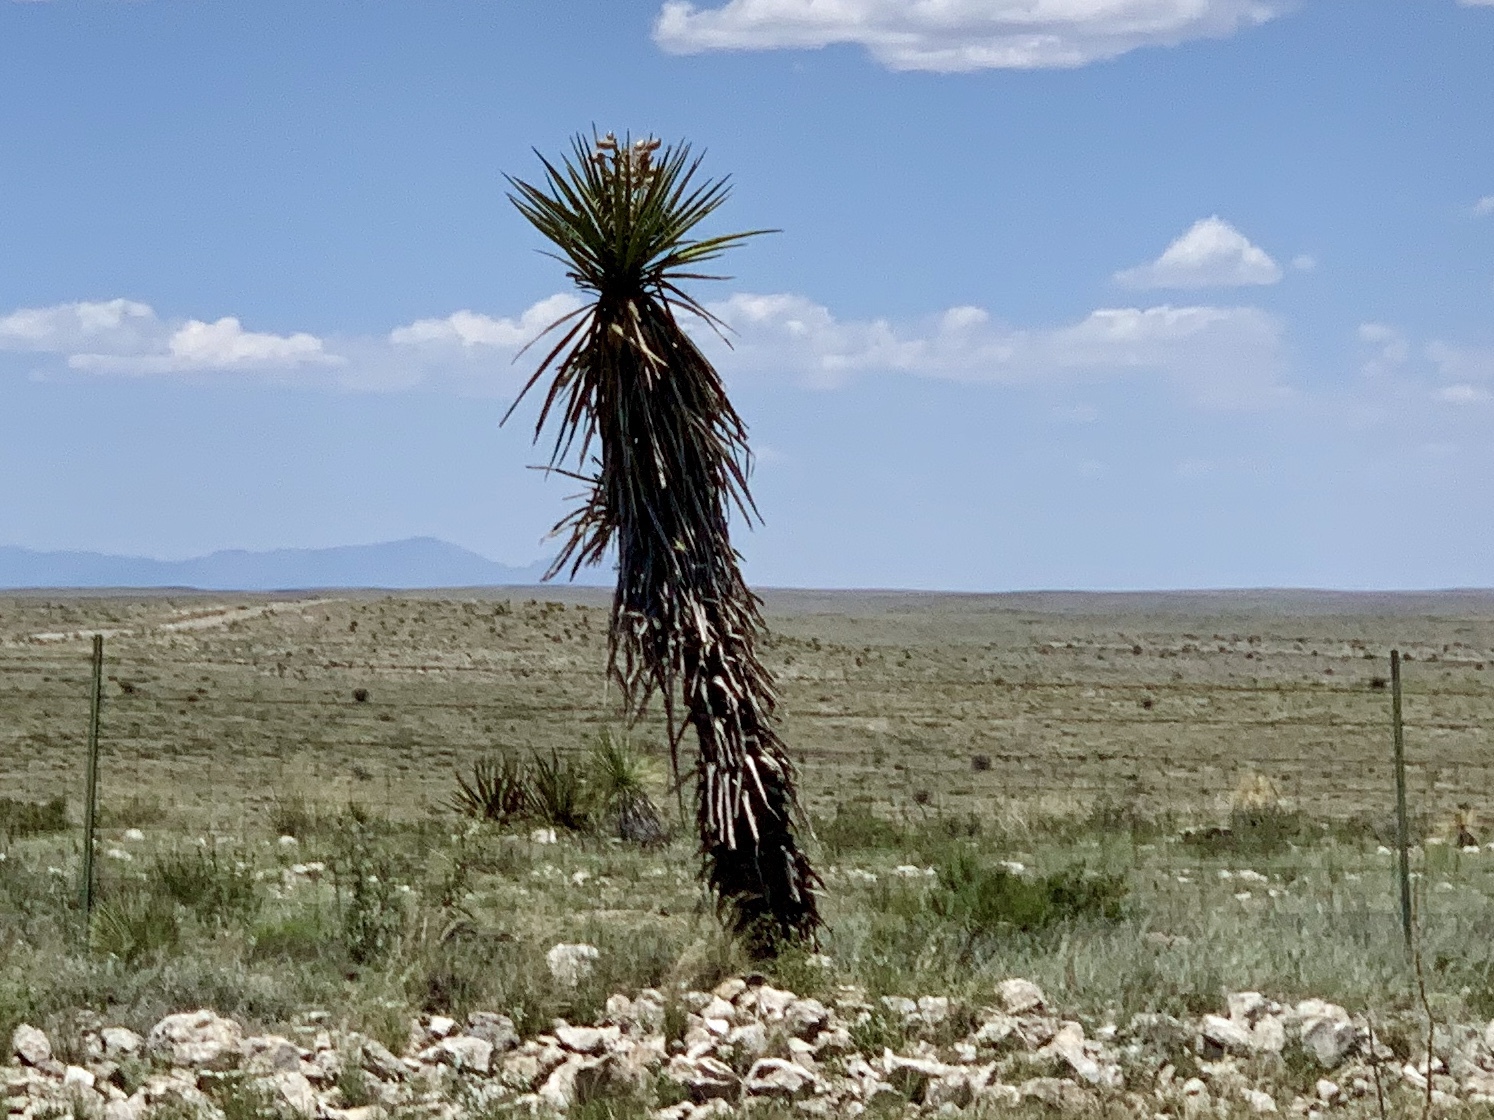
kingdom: Plantae
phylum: Tracheophyta
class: Liliopsida
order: Asparagales
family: Asparagaceae
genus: Yucca
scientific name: Yucca treculiana
